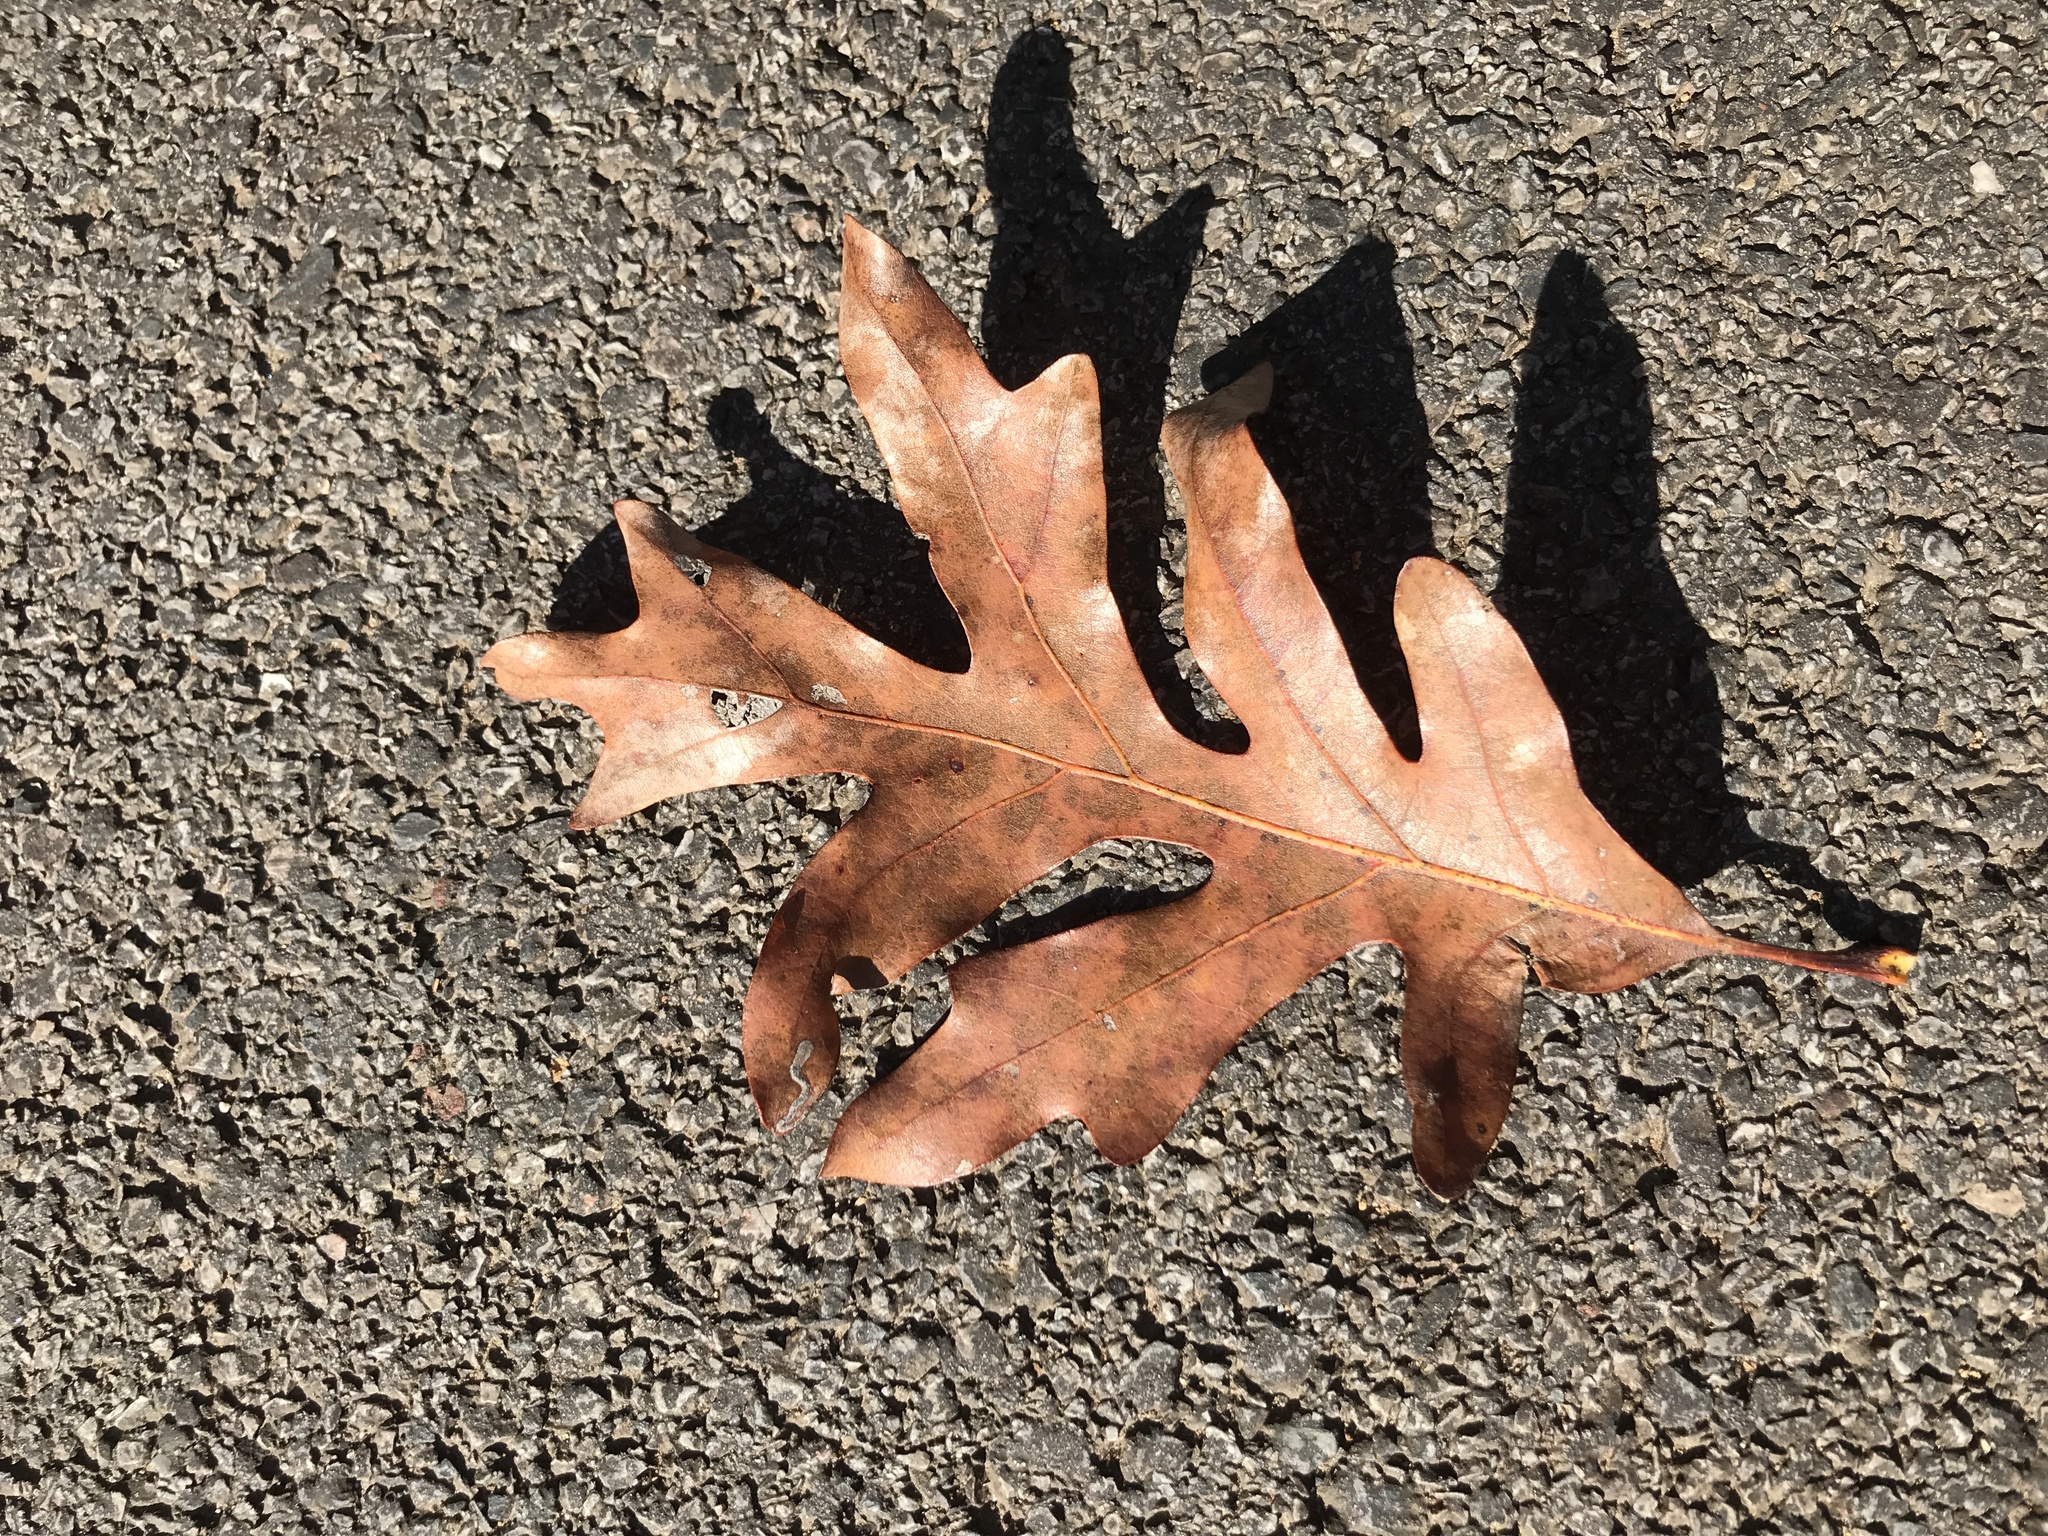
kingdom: Plantae
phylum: Tracheophyta
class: Magnoliopsida
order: Fagales
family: Fagaceae
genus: Quercus
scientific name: Quercus alba
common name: White oak
